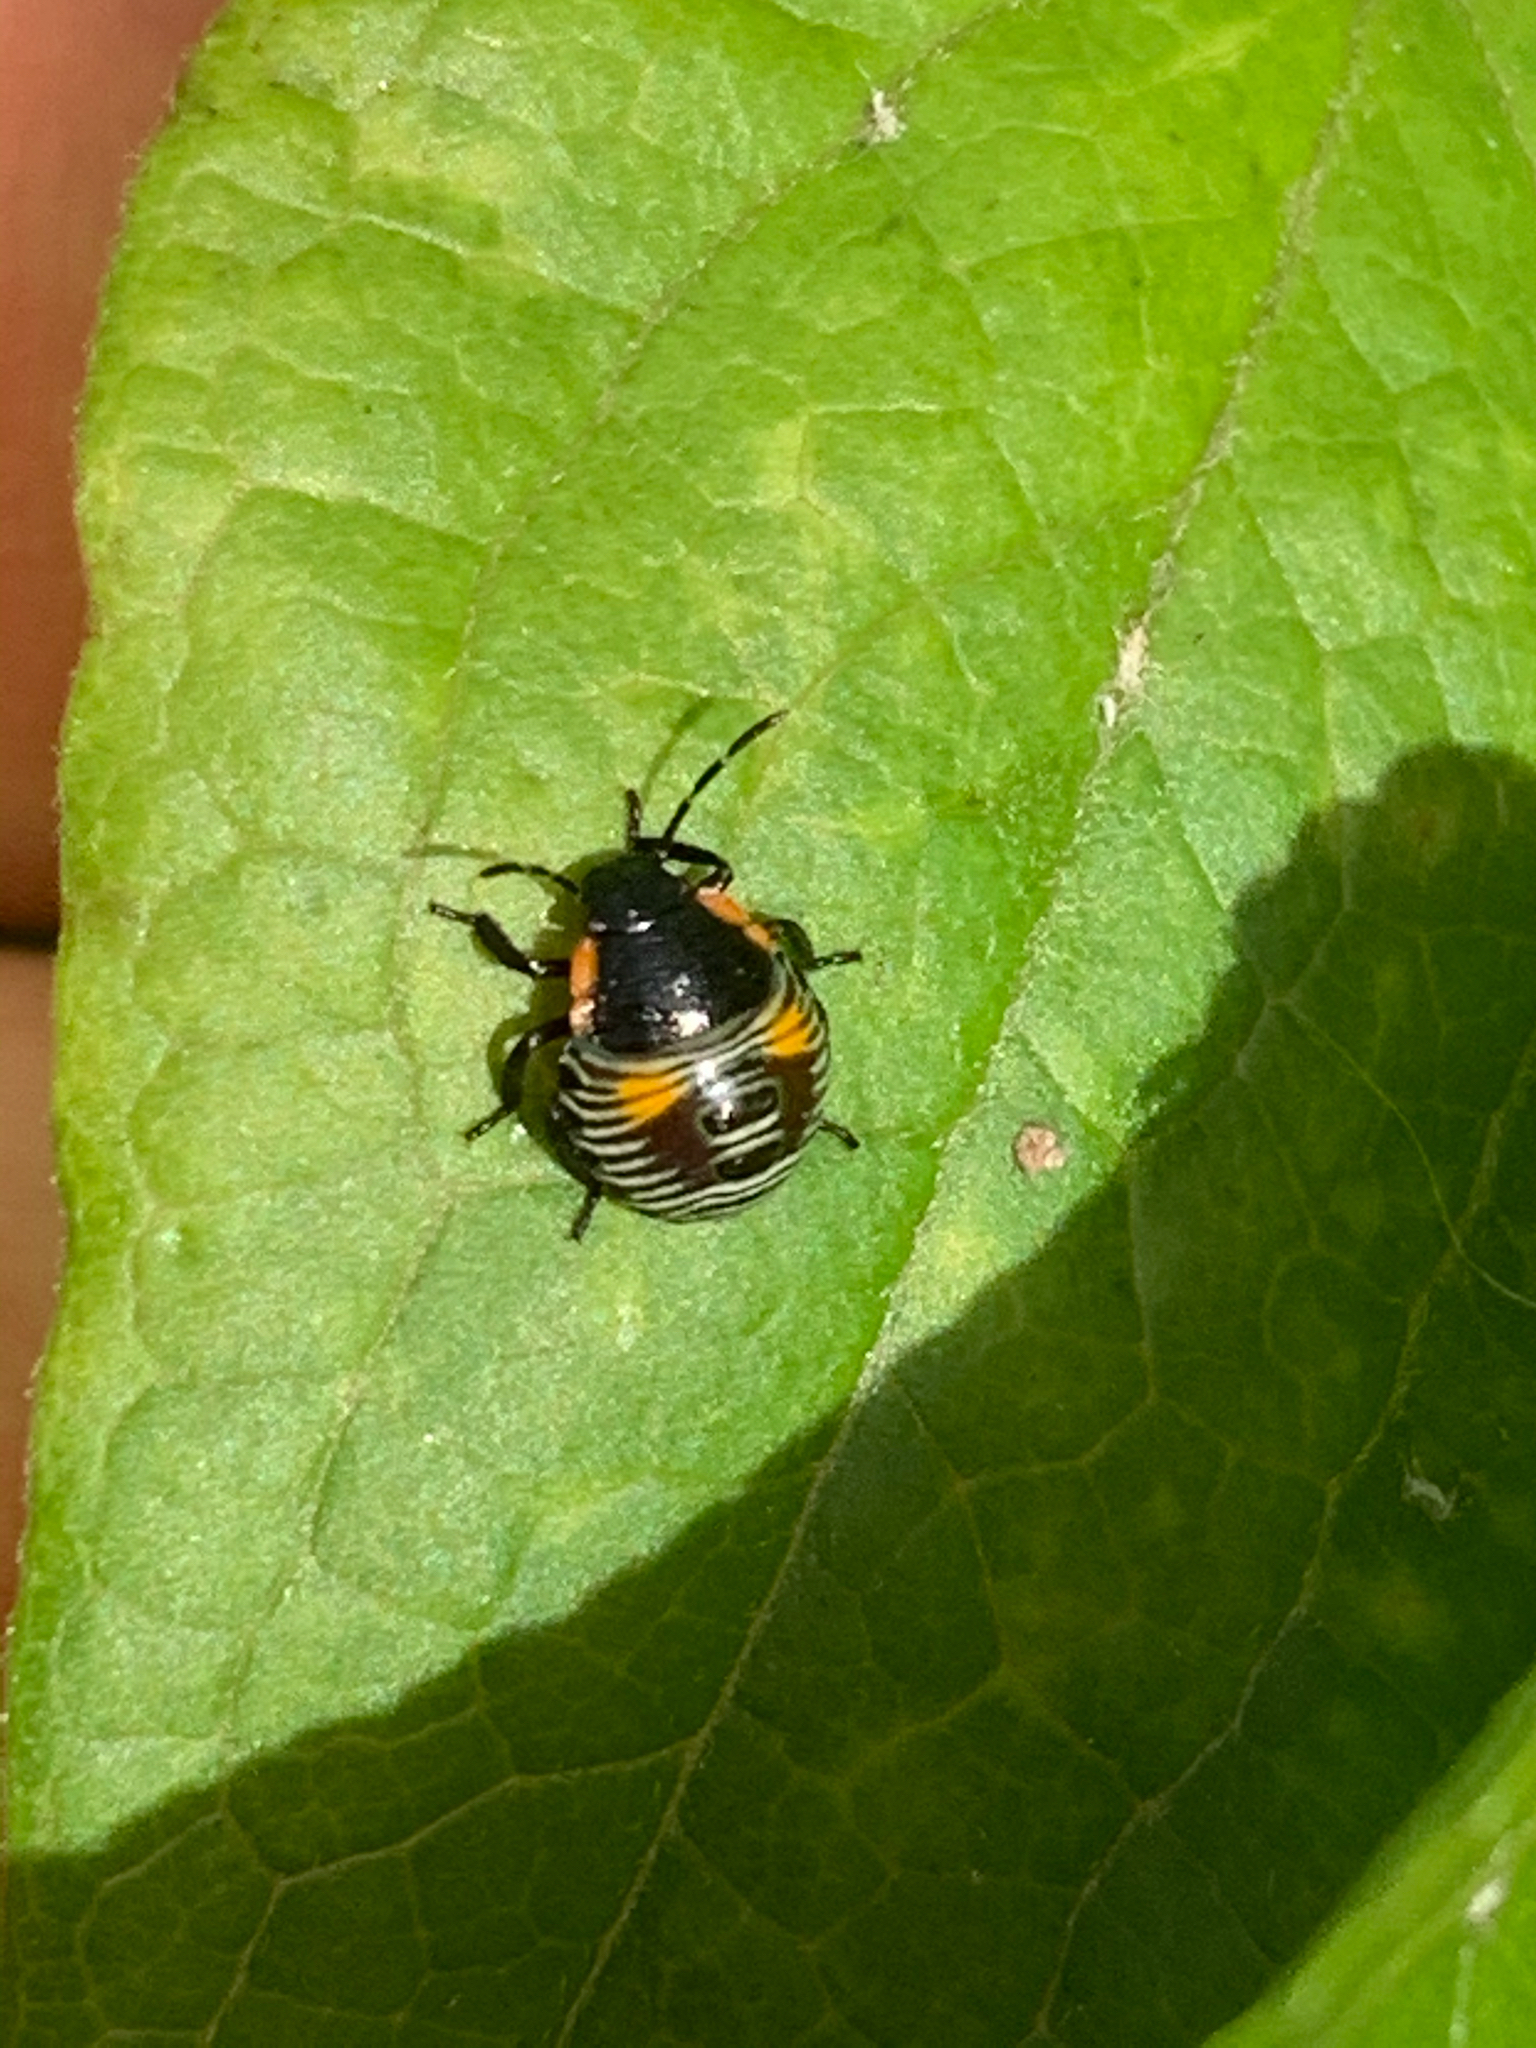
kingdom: Animalia
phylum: Arthropoda
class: Insecta
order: Hemiptera
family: Pentatomidae
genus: Chinavia
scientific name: Chinavia hilaris
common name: Green stink bug
